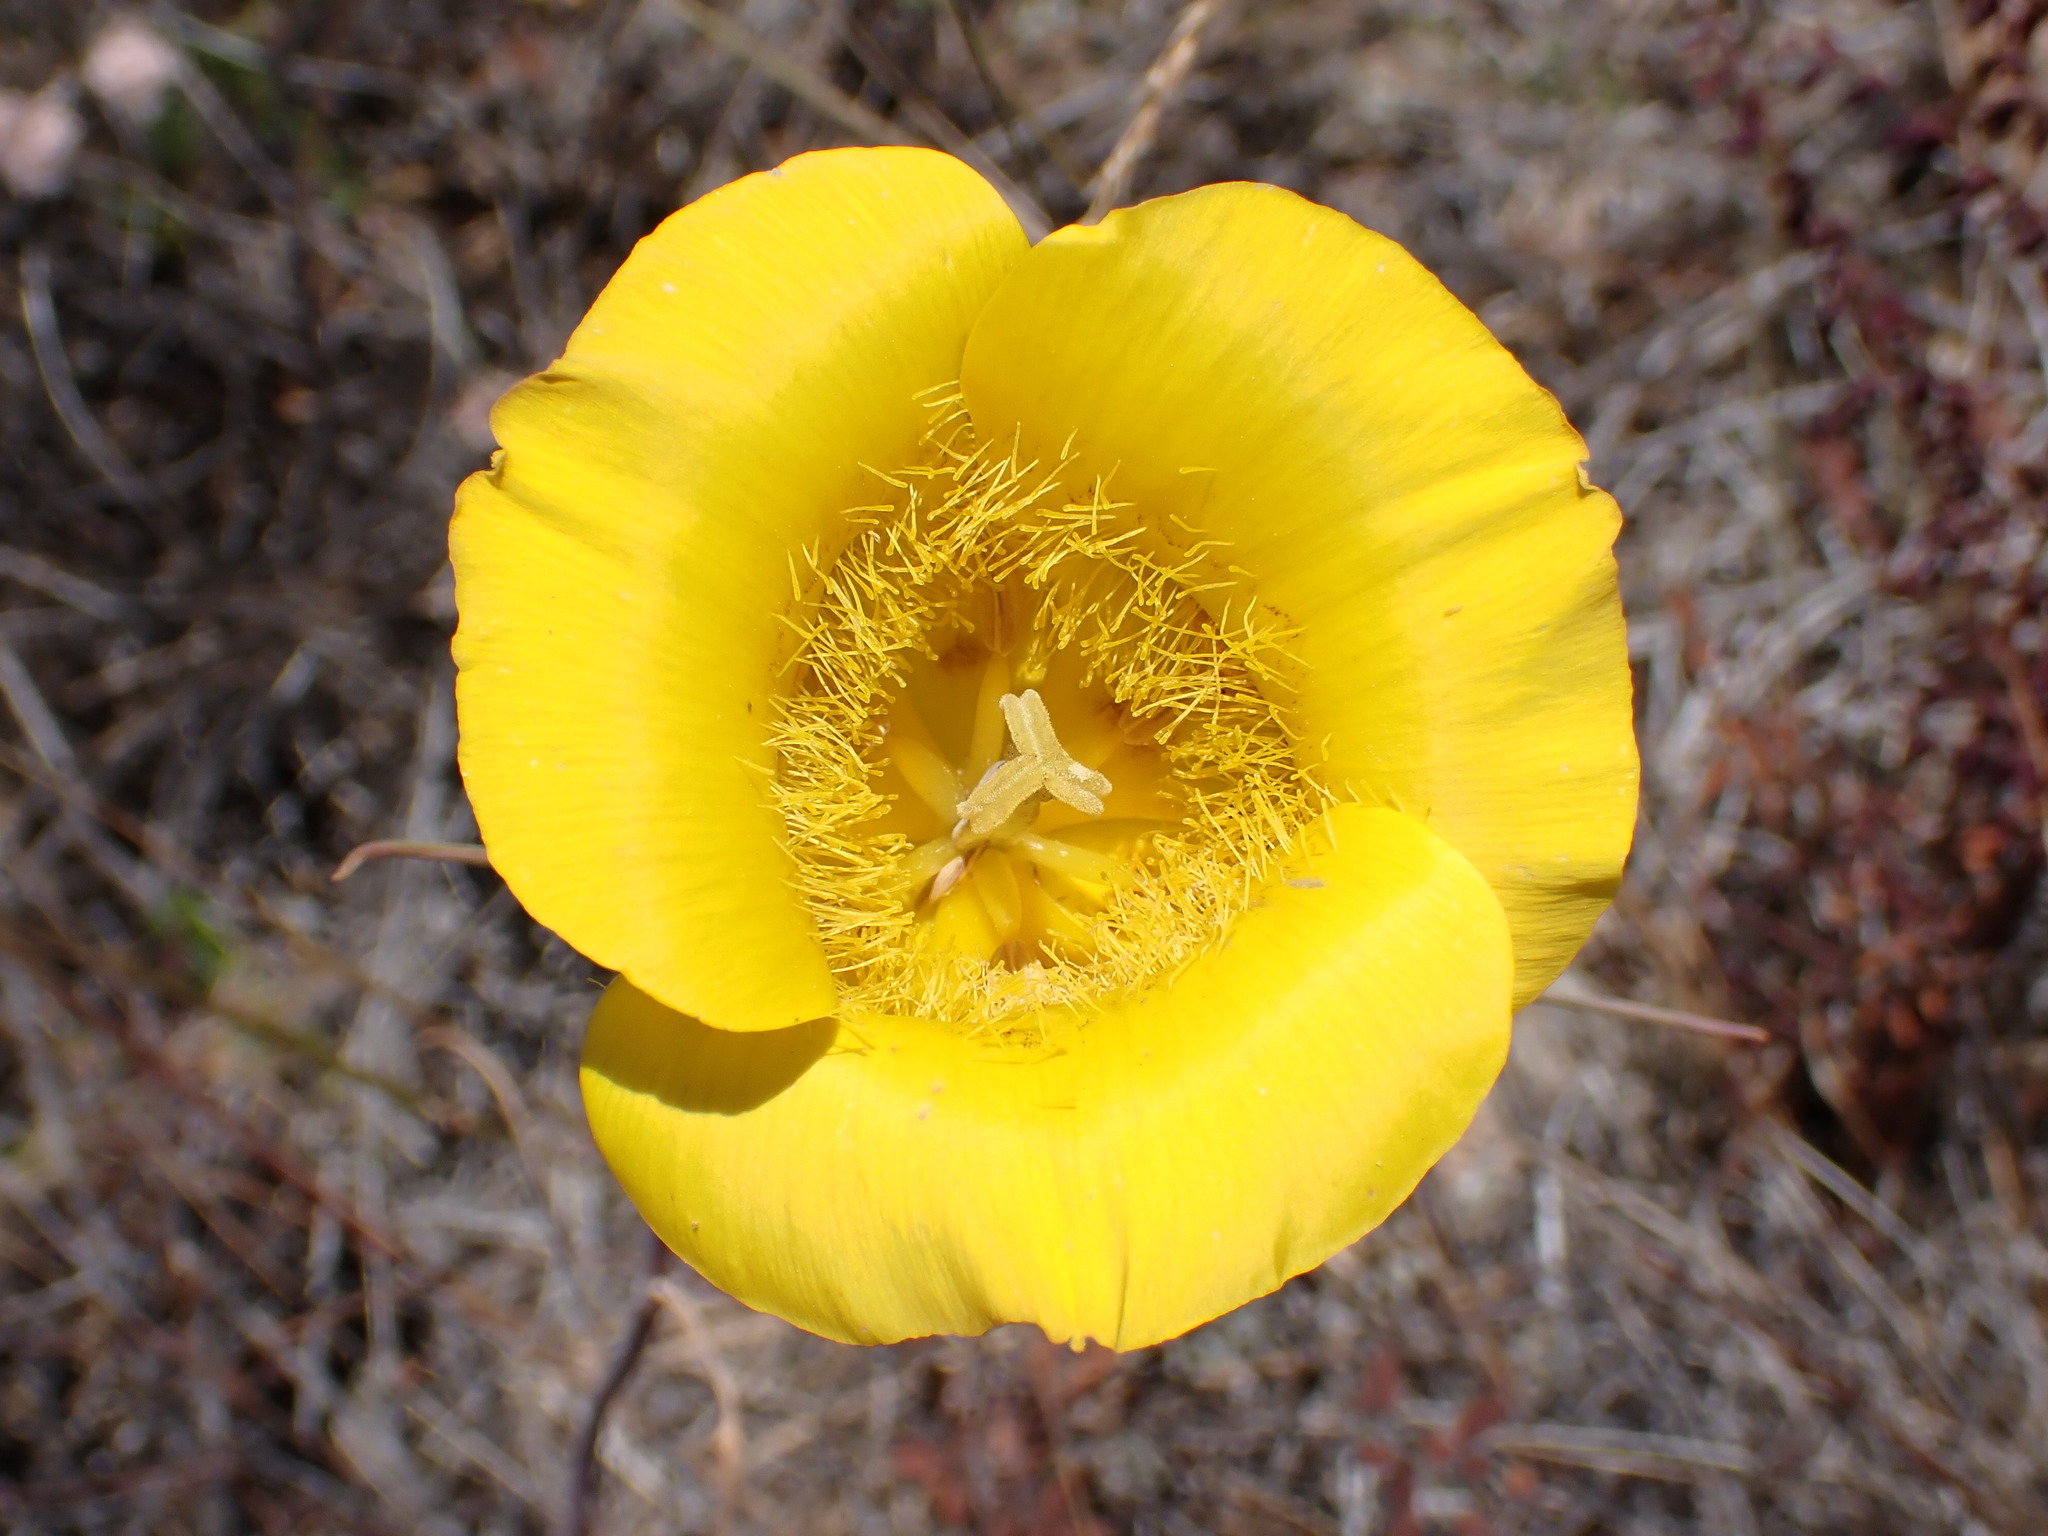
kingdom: Plantae
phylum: Tracheophyta
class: Liliopsida
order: Liliales
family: Liliaceae
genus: Calochortus
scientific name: Calochortus clavatus
